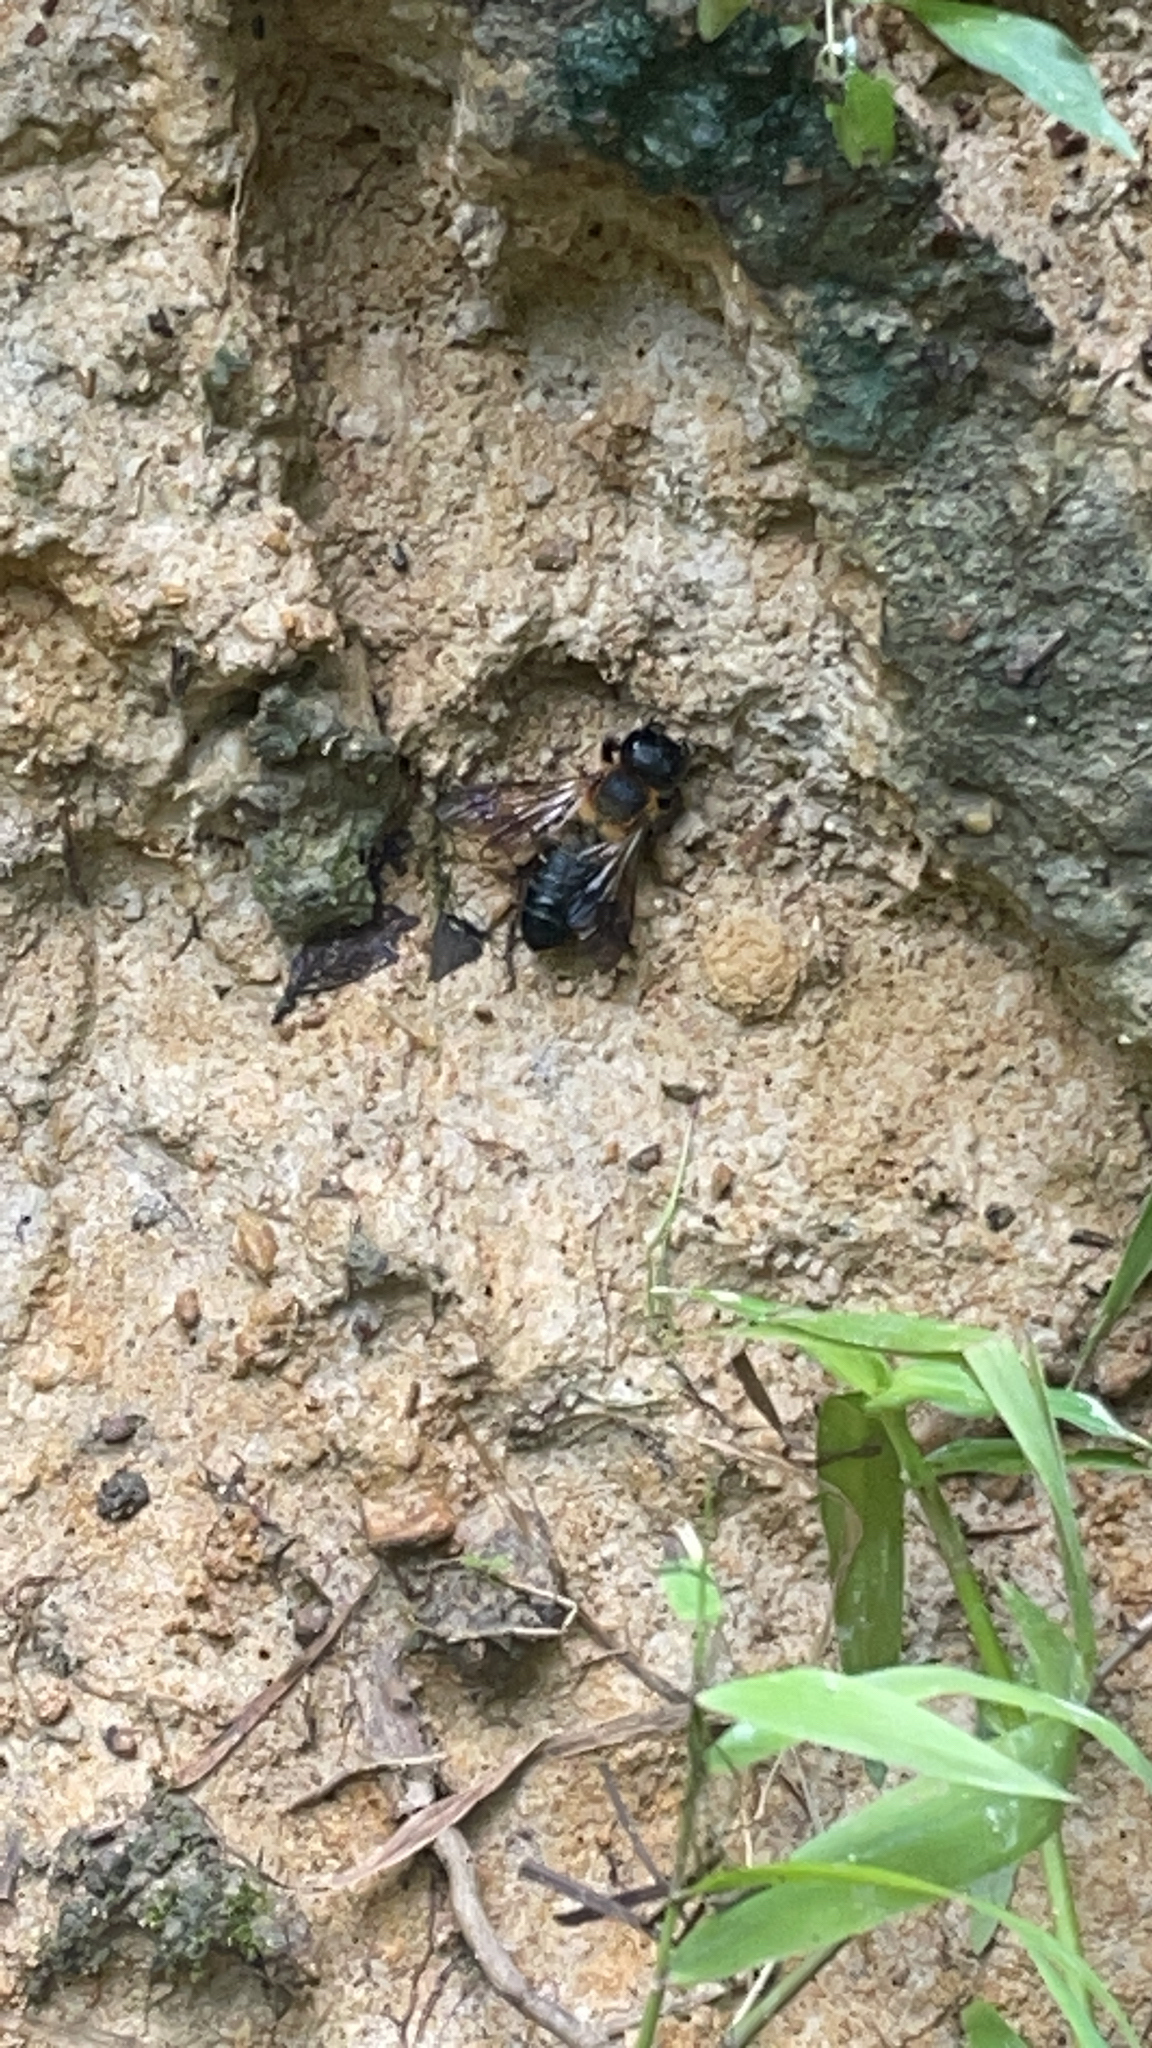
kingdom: Animalia
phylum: Arthropoda
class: Insecta
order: Hymenoptera
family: Megachilidae
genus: Megachile
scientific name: Megachile sculpturalis
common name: Sculptured resin bee
